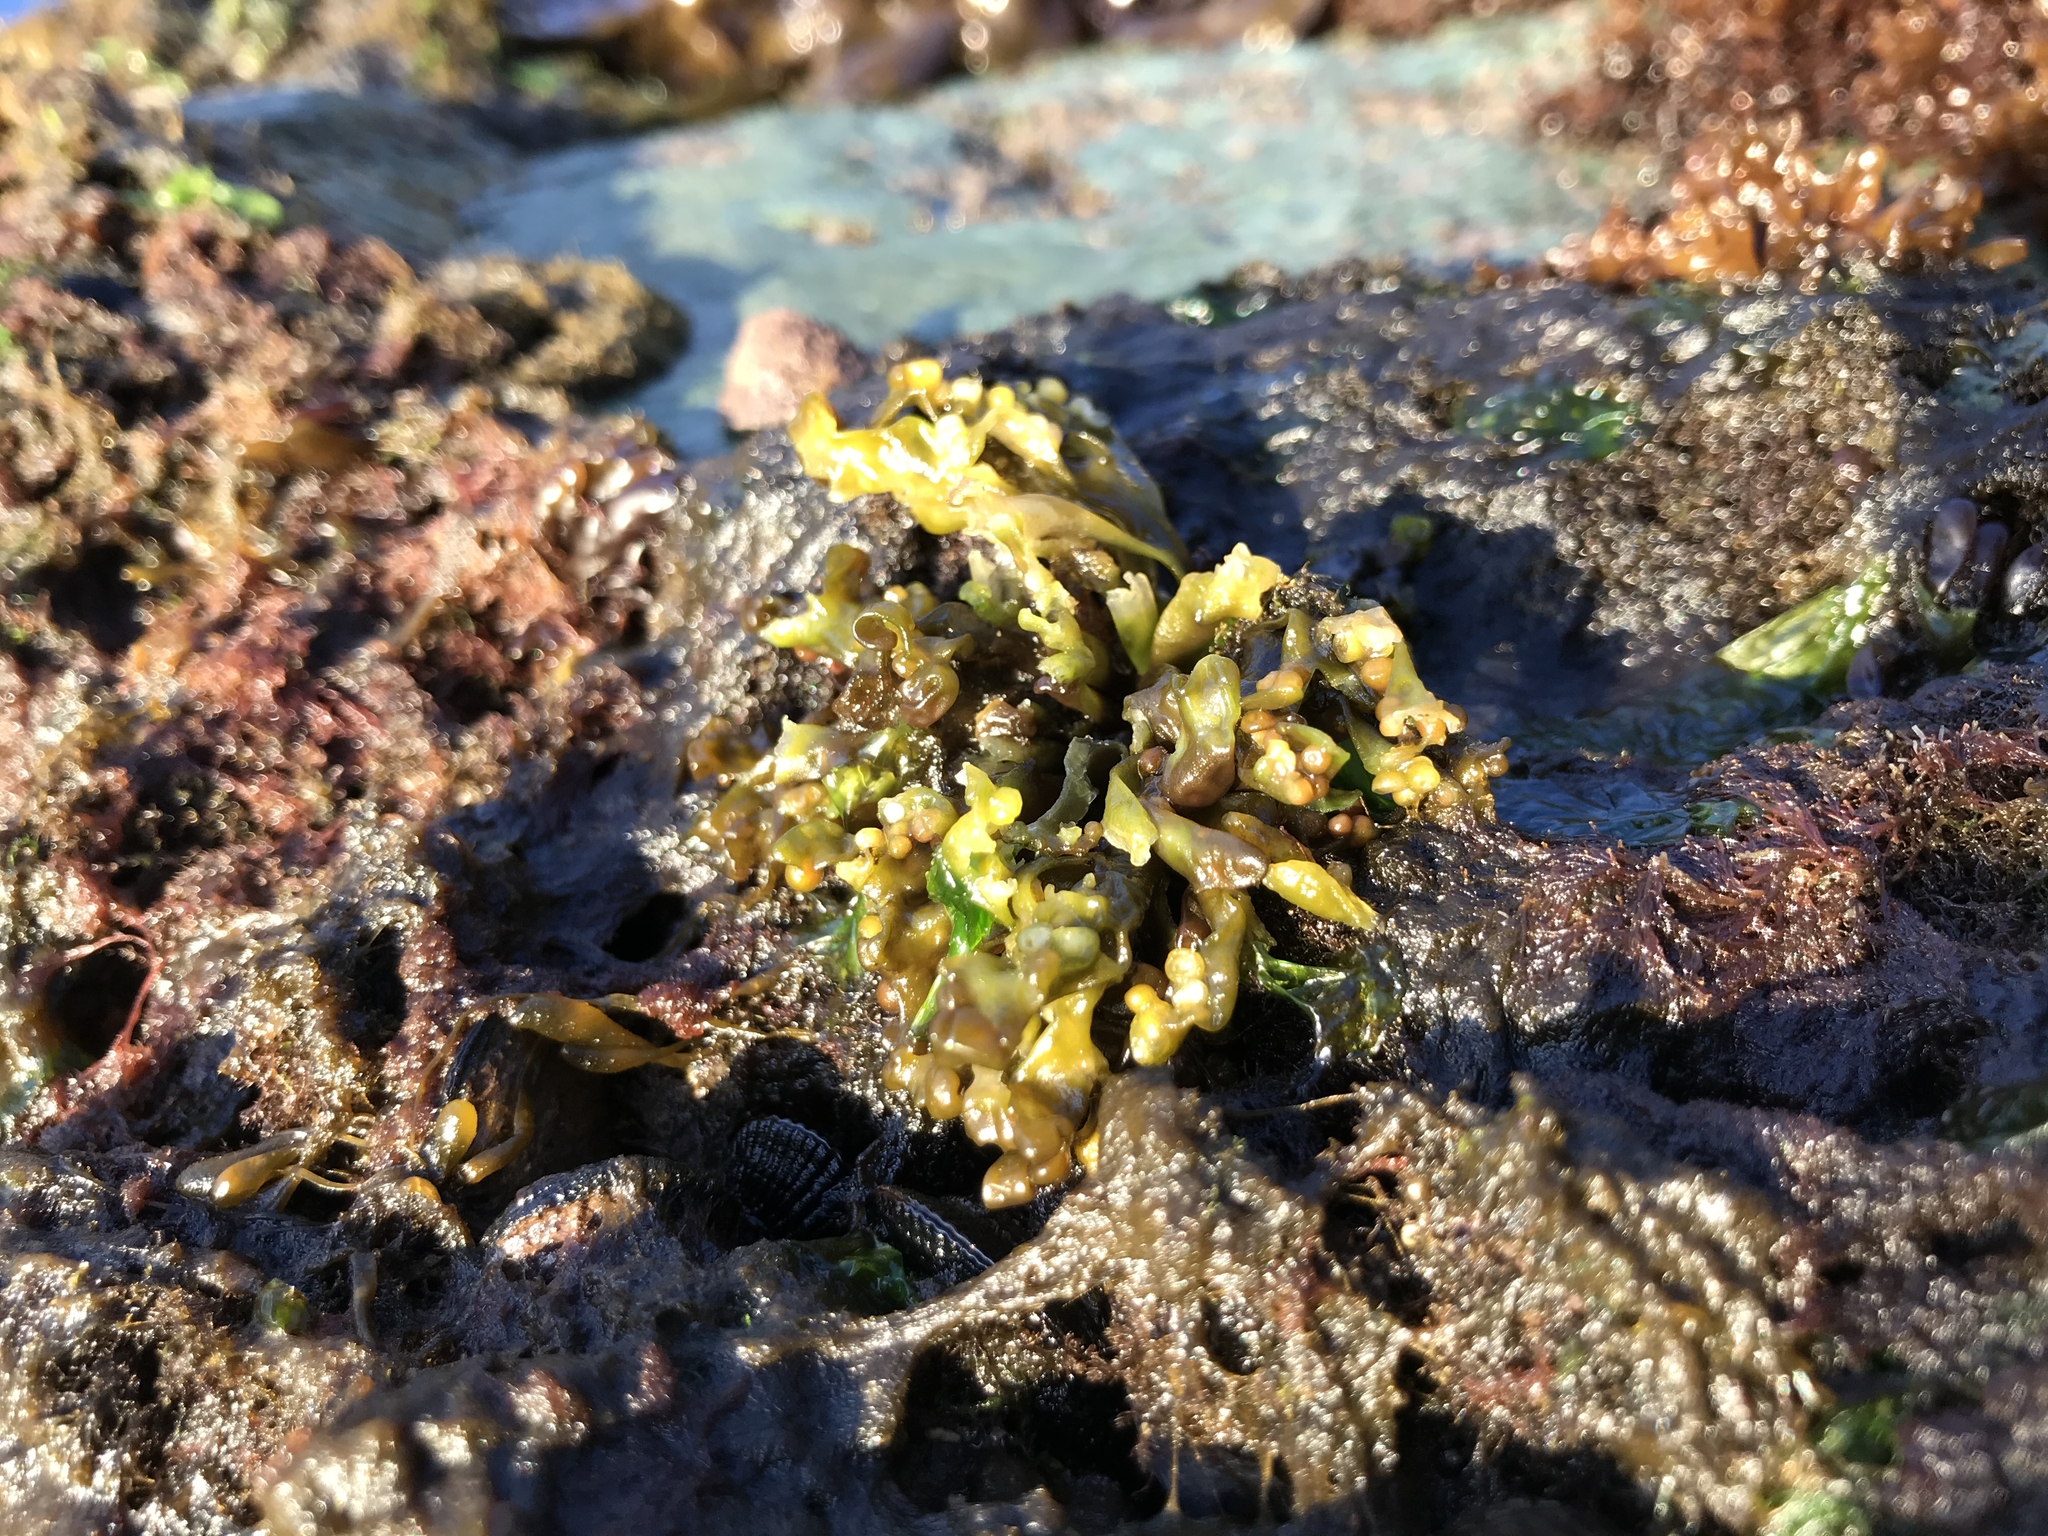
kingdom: Plantae
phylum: Rhodophyta
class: Florideophyceae
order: Gigartinales
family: Gigartinaceae
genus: Iridaea
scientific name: Iridaea tuberculosa
